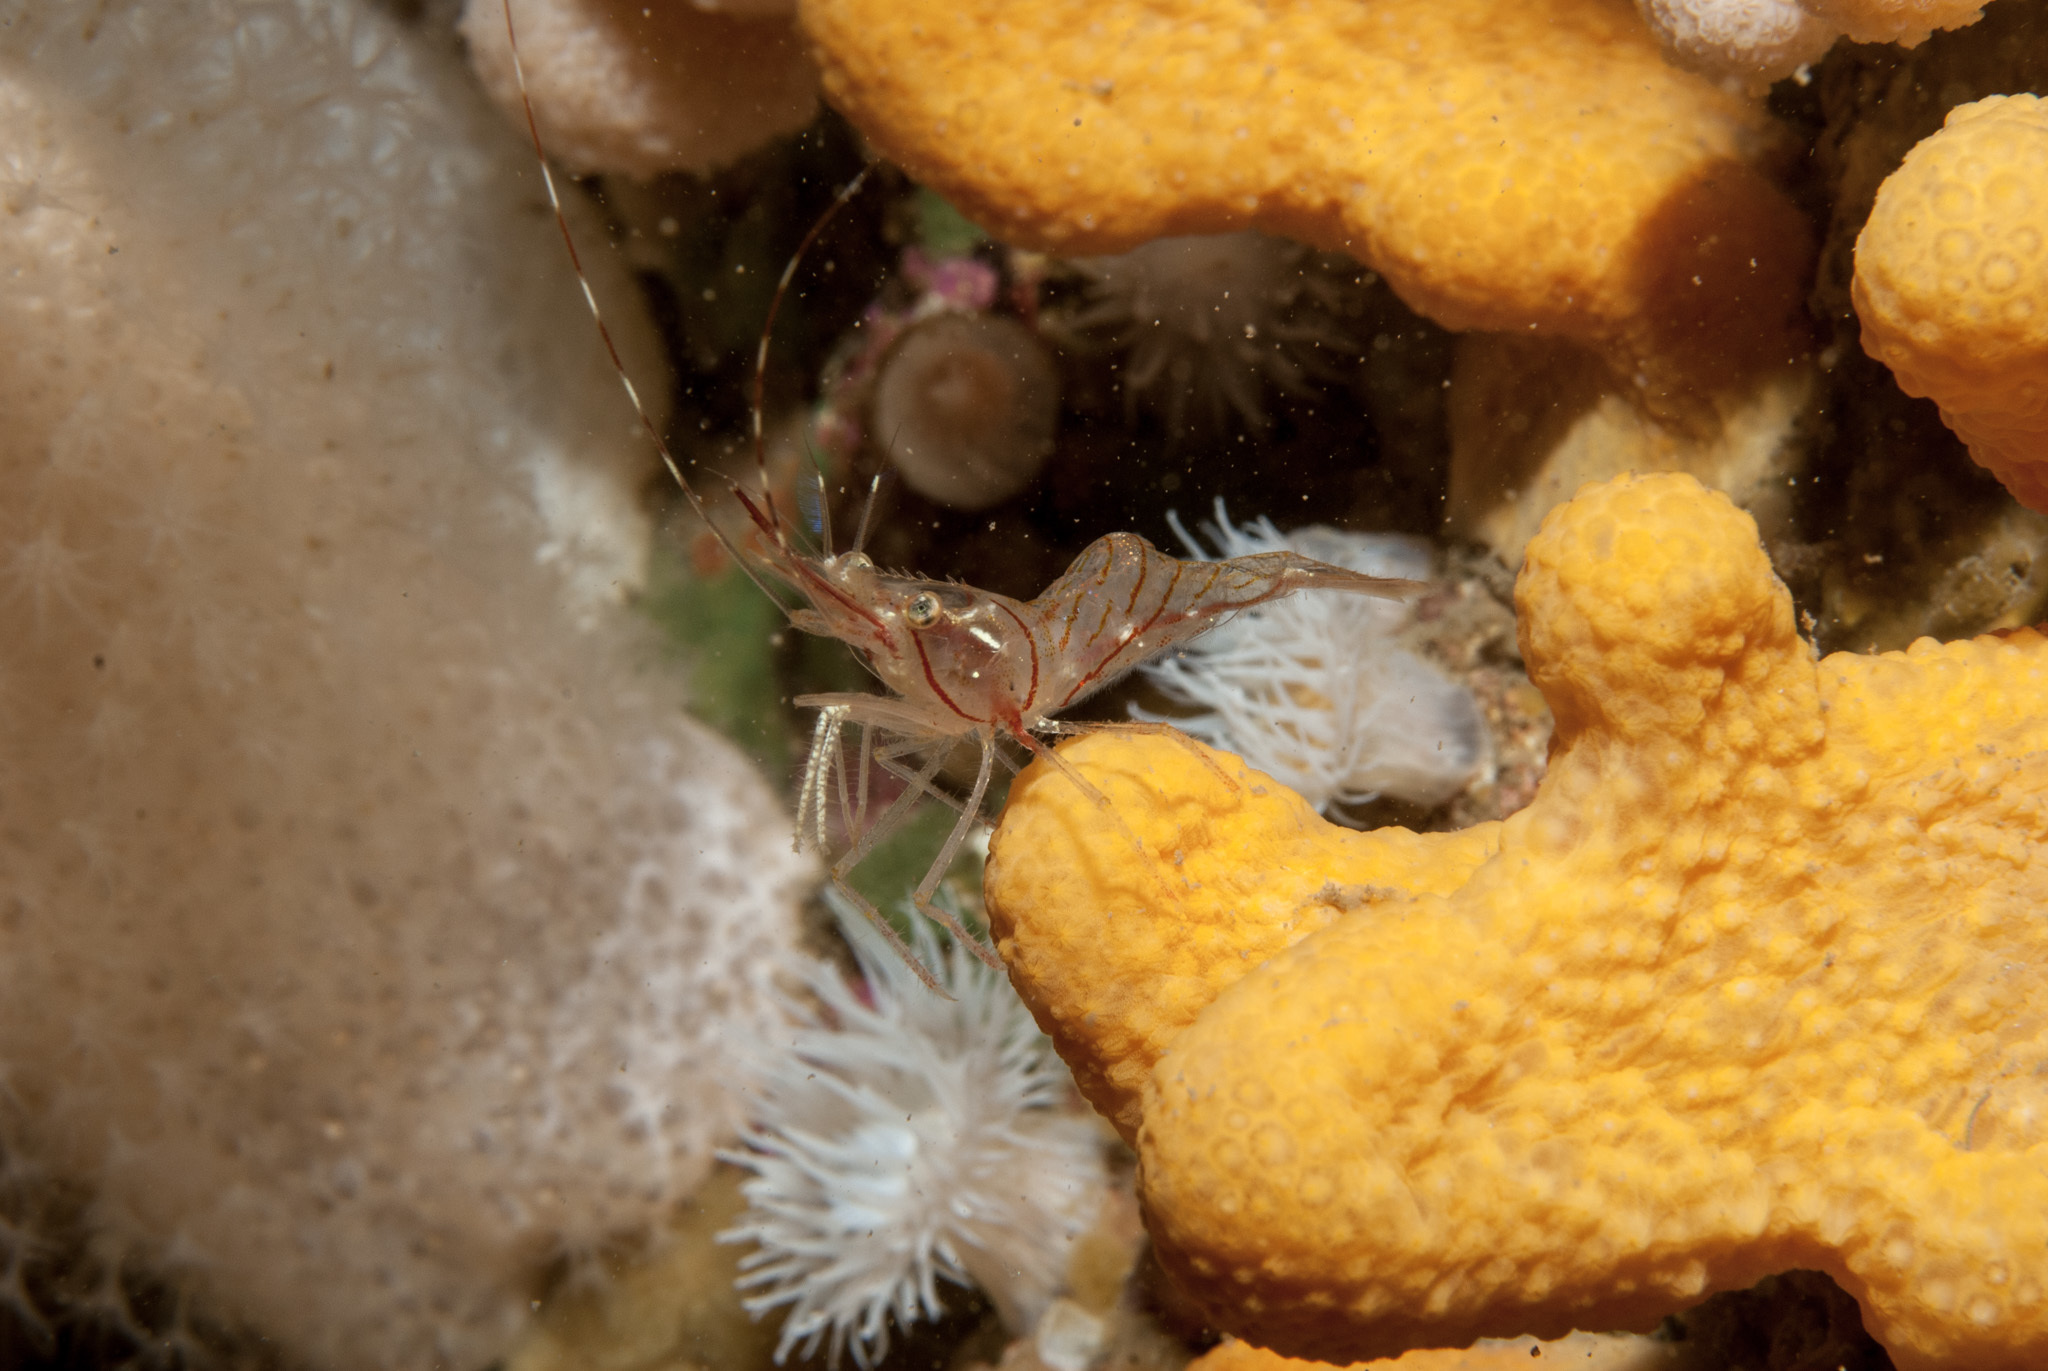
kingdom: Animalia
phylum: Arthropoda
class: Malacostraca
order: Decapoda
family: Pandalidae
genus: Pandalus
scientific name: Pandalus montagui
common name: Pink shrimp
